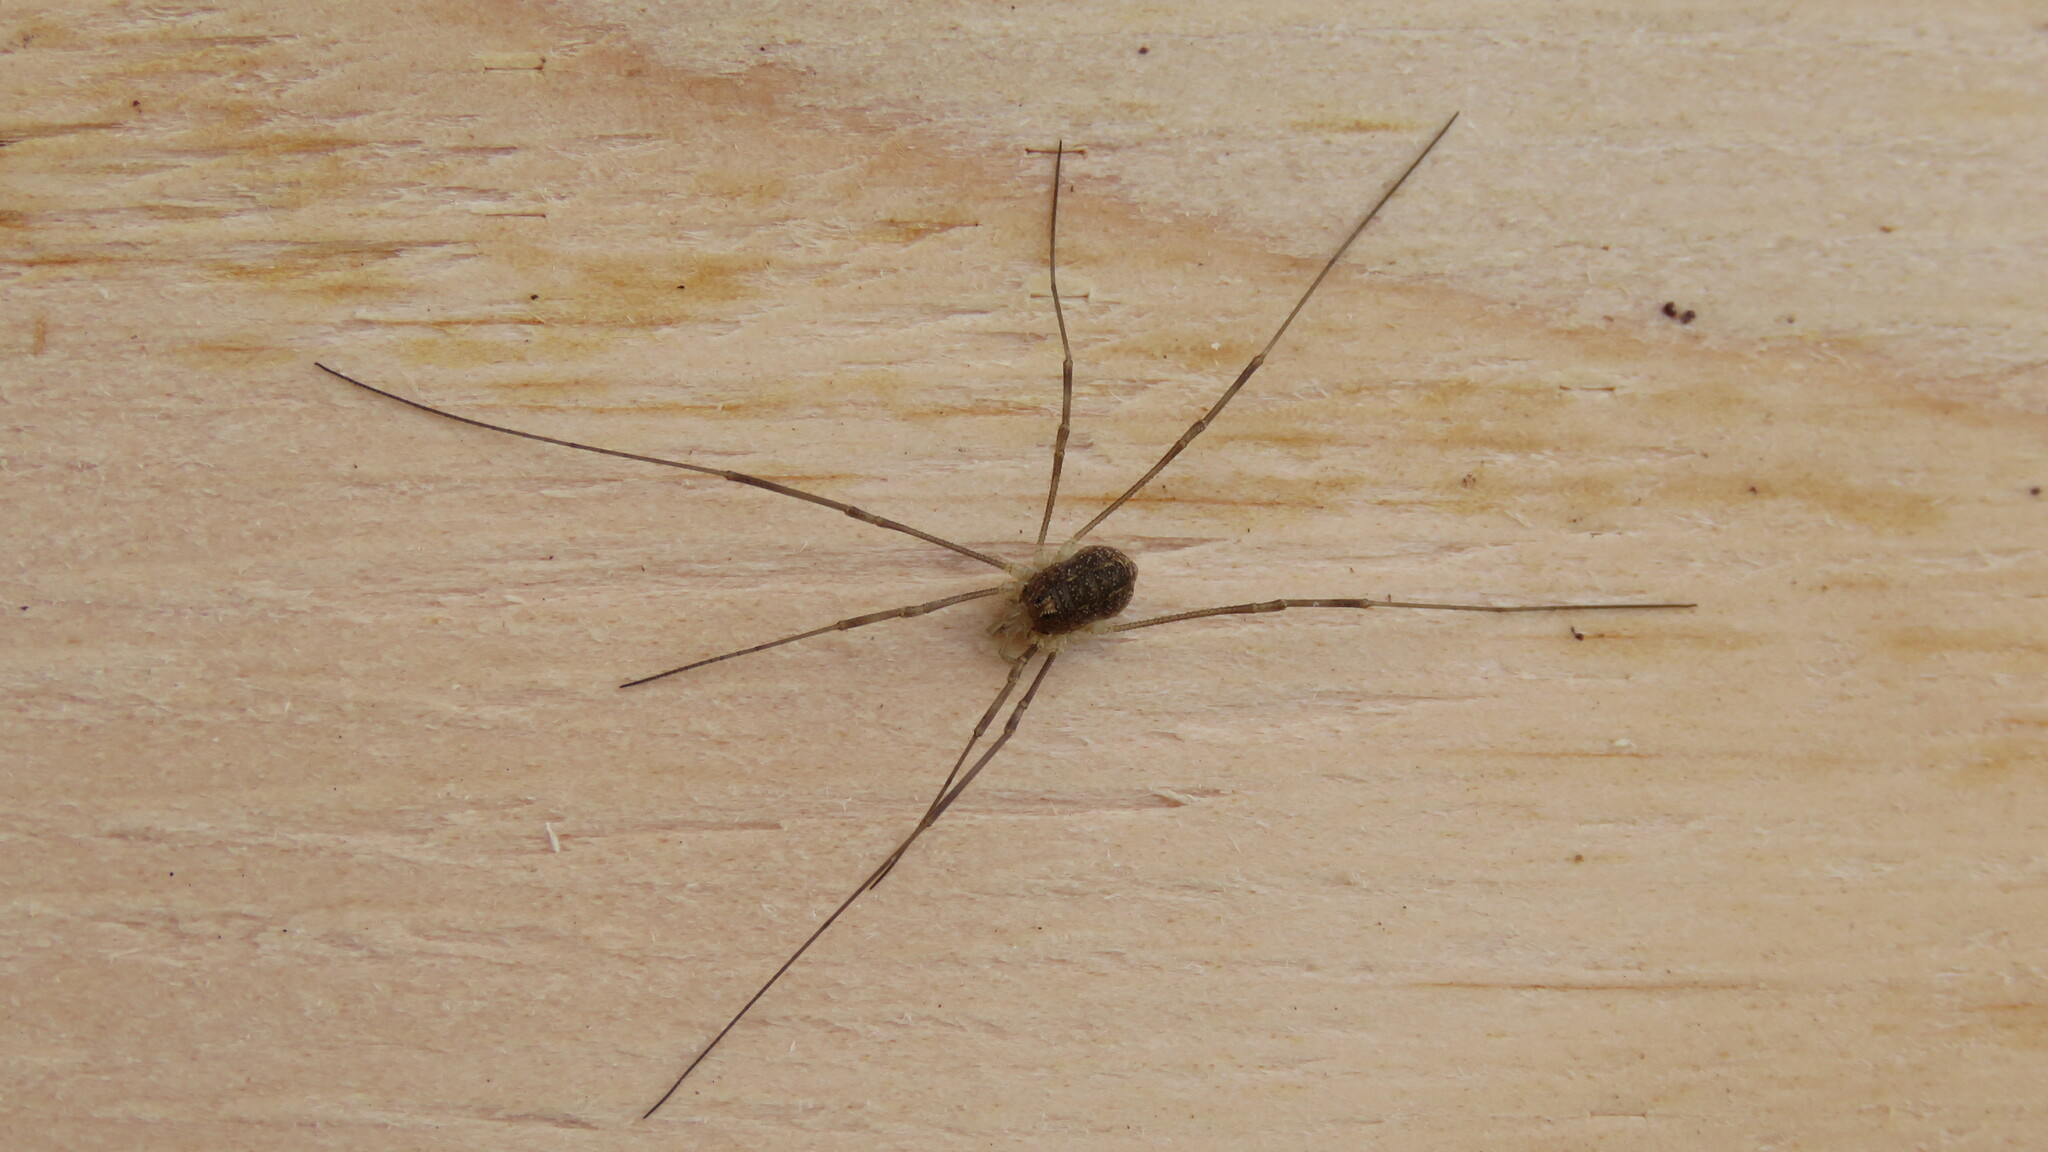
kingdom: Animalia
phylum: Arthropoda
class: Arachnida
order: Opiliones
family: Phalangiidae
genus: Rilaena
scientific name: Rilaena triangularis
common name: Spring harvestman
